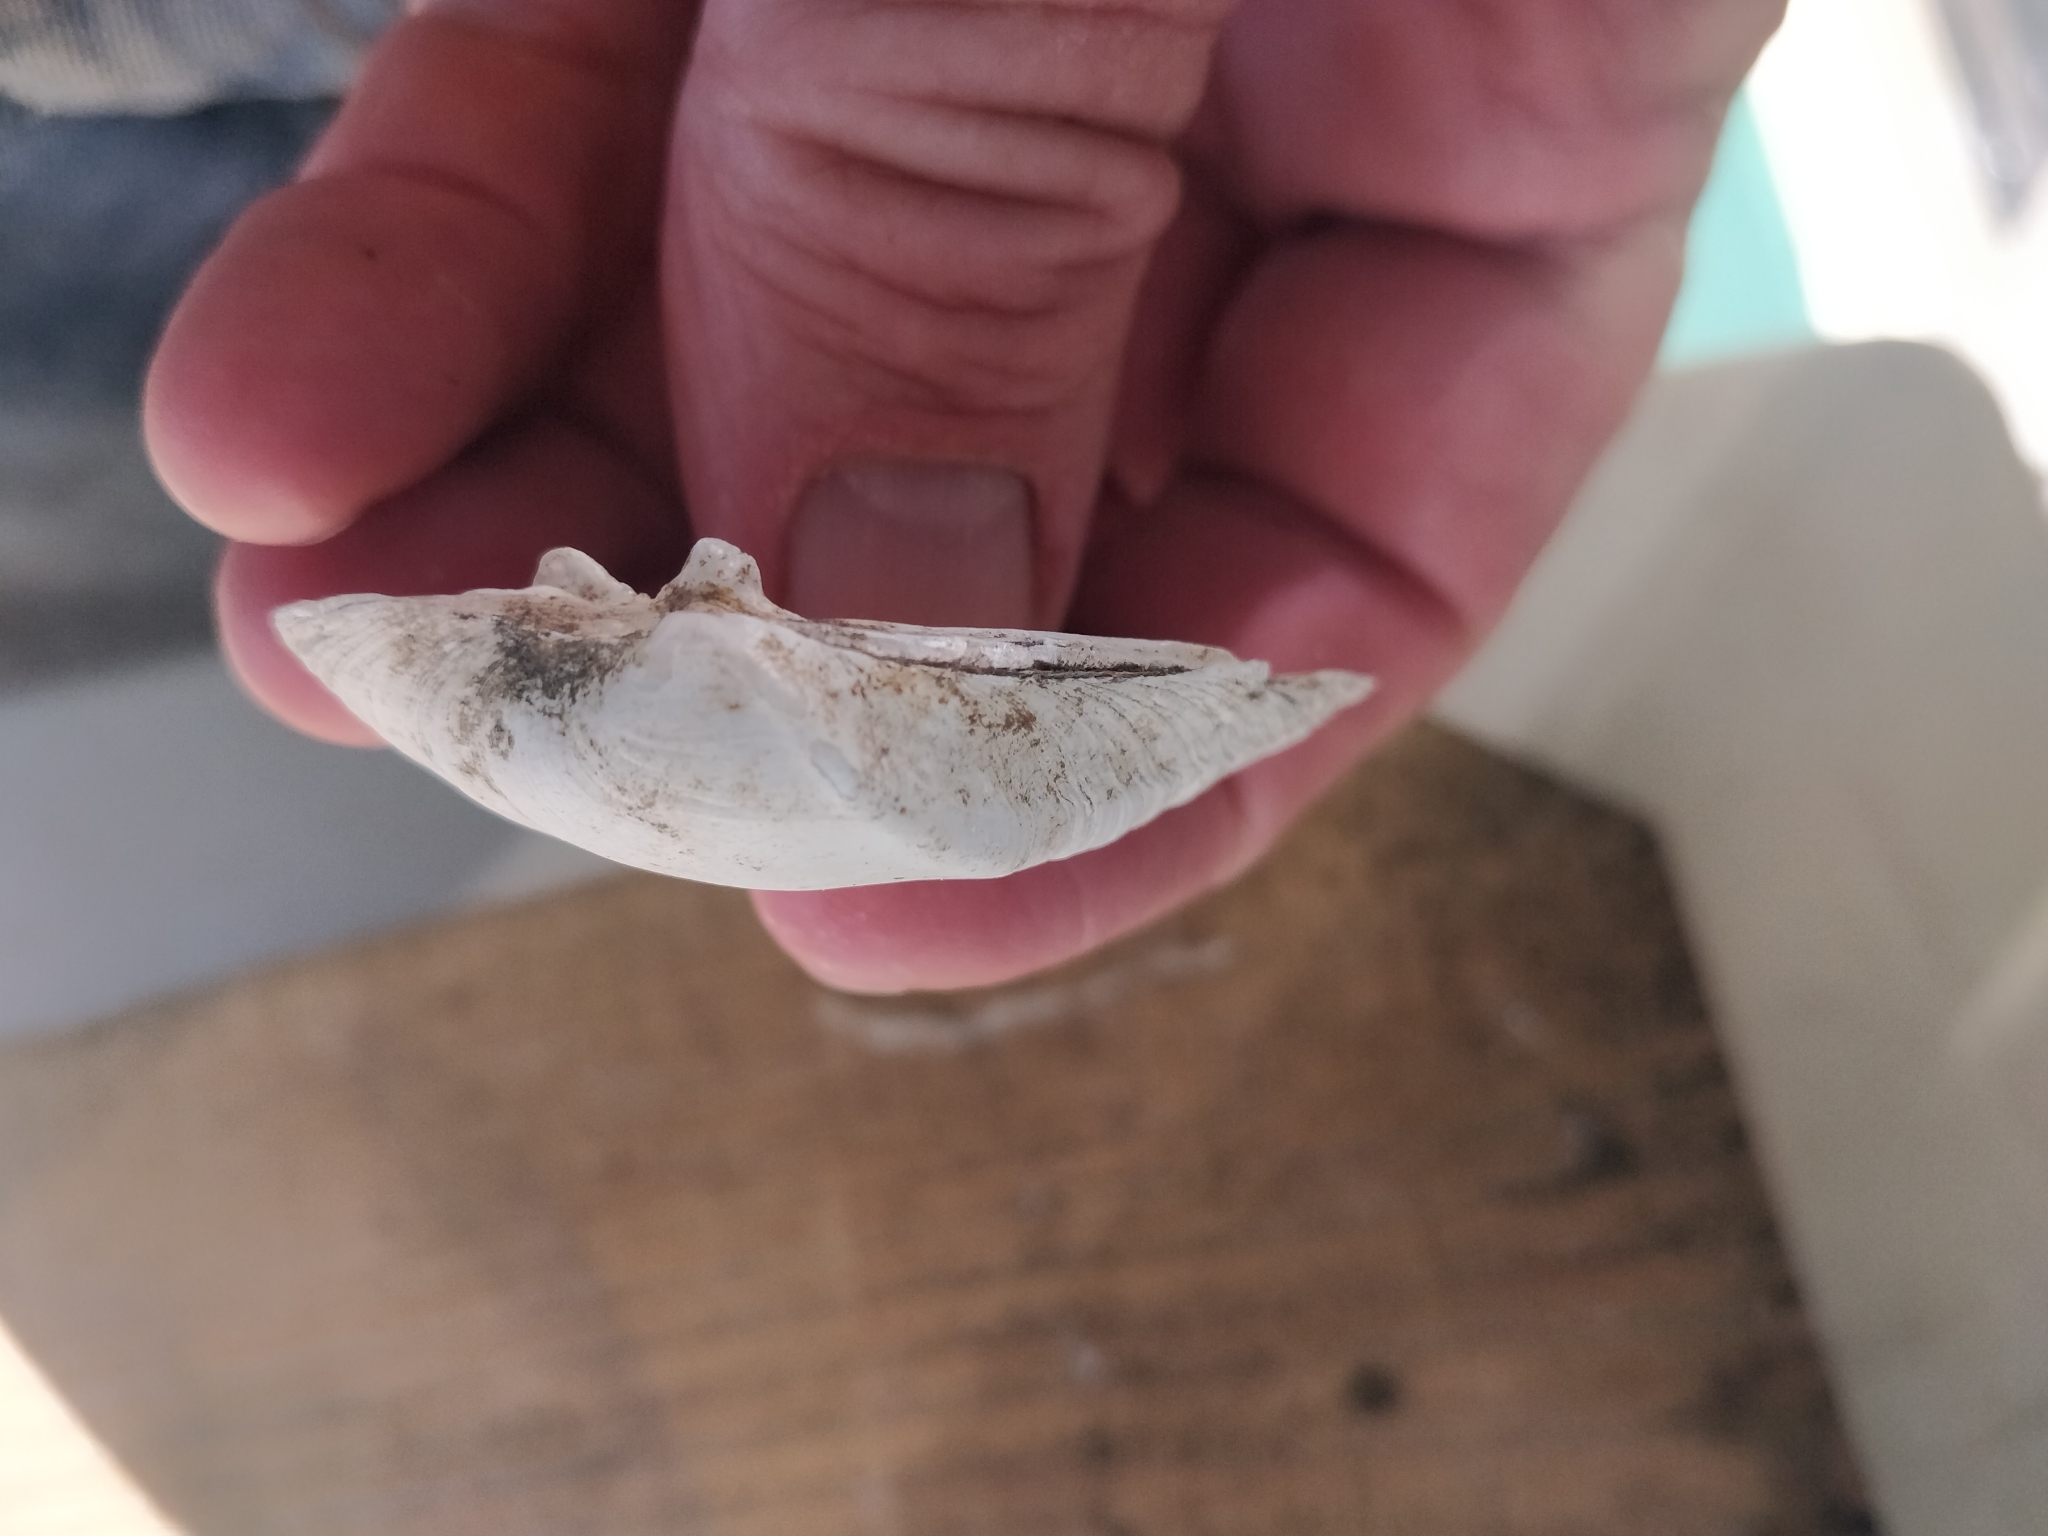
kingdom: Animalia
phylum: Mollusca
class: Bivalvia
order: Unionida
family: Unionidae
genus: Truncilla
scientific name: Truncilla truncata
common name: Deertoe
